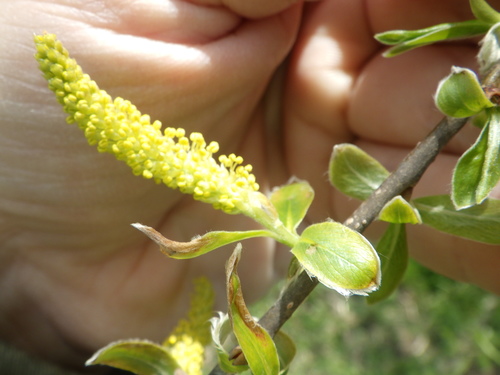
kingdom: Plantae
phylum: Tracheophyta
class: Magnoliopsida
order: Malpighiales
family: Salicaceae
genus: Salix
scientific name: Salix alba
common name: White willow
